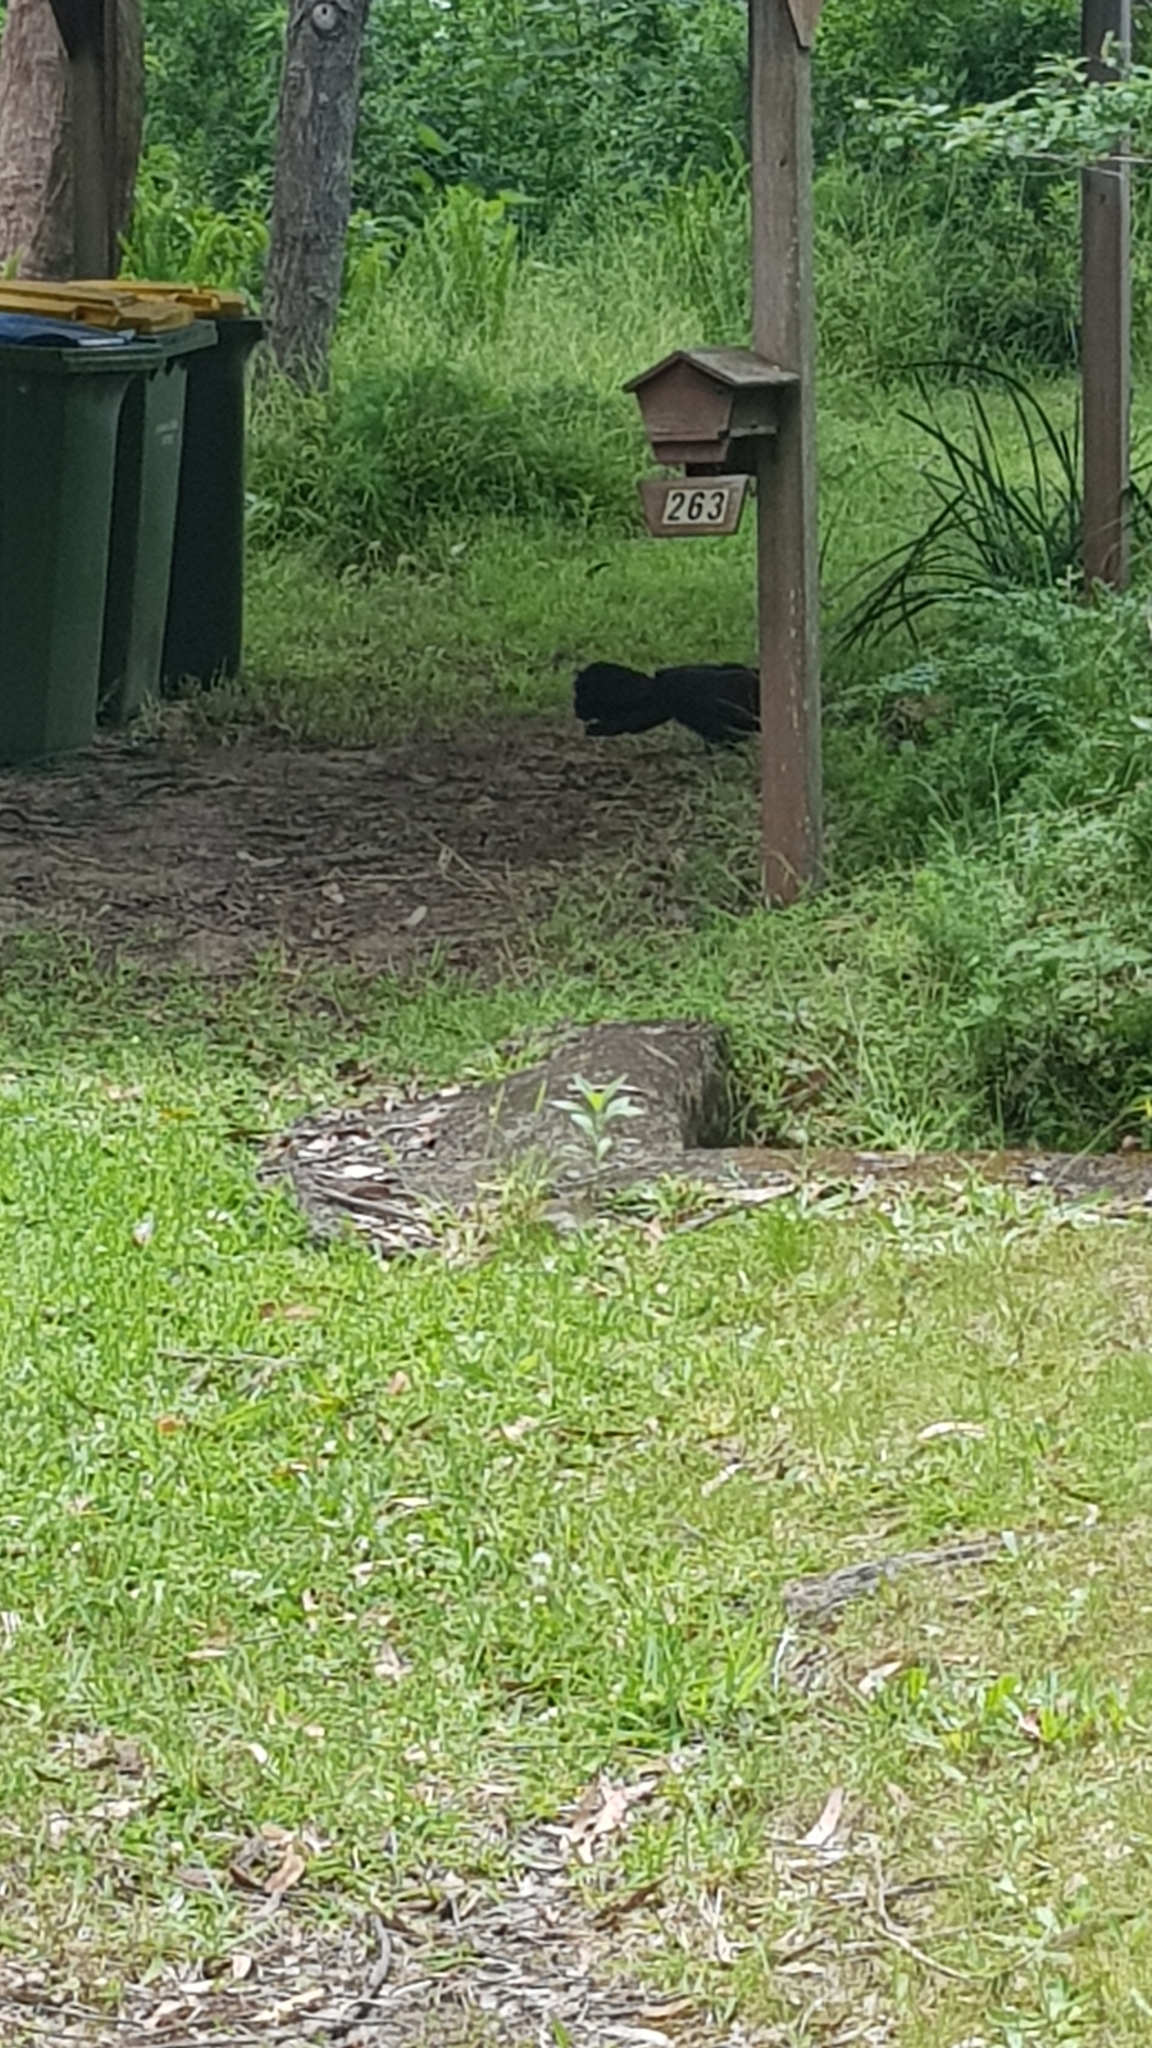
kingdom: Animalia
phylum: Chordata
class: Aves
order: Galliformes
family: Megapodiidae
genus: Alectura
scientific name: Alectura lathami
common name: Australian brushturkey
